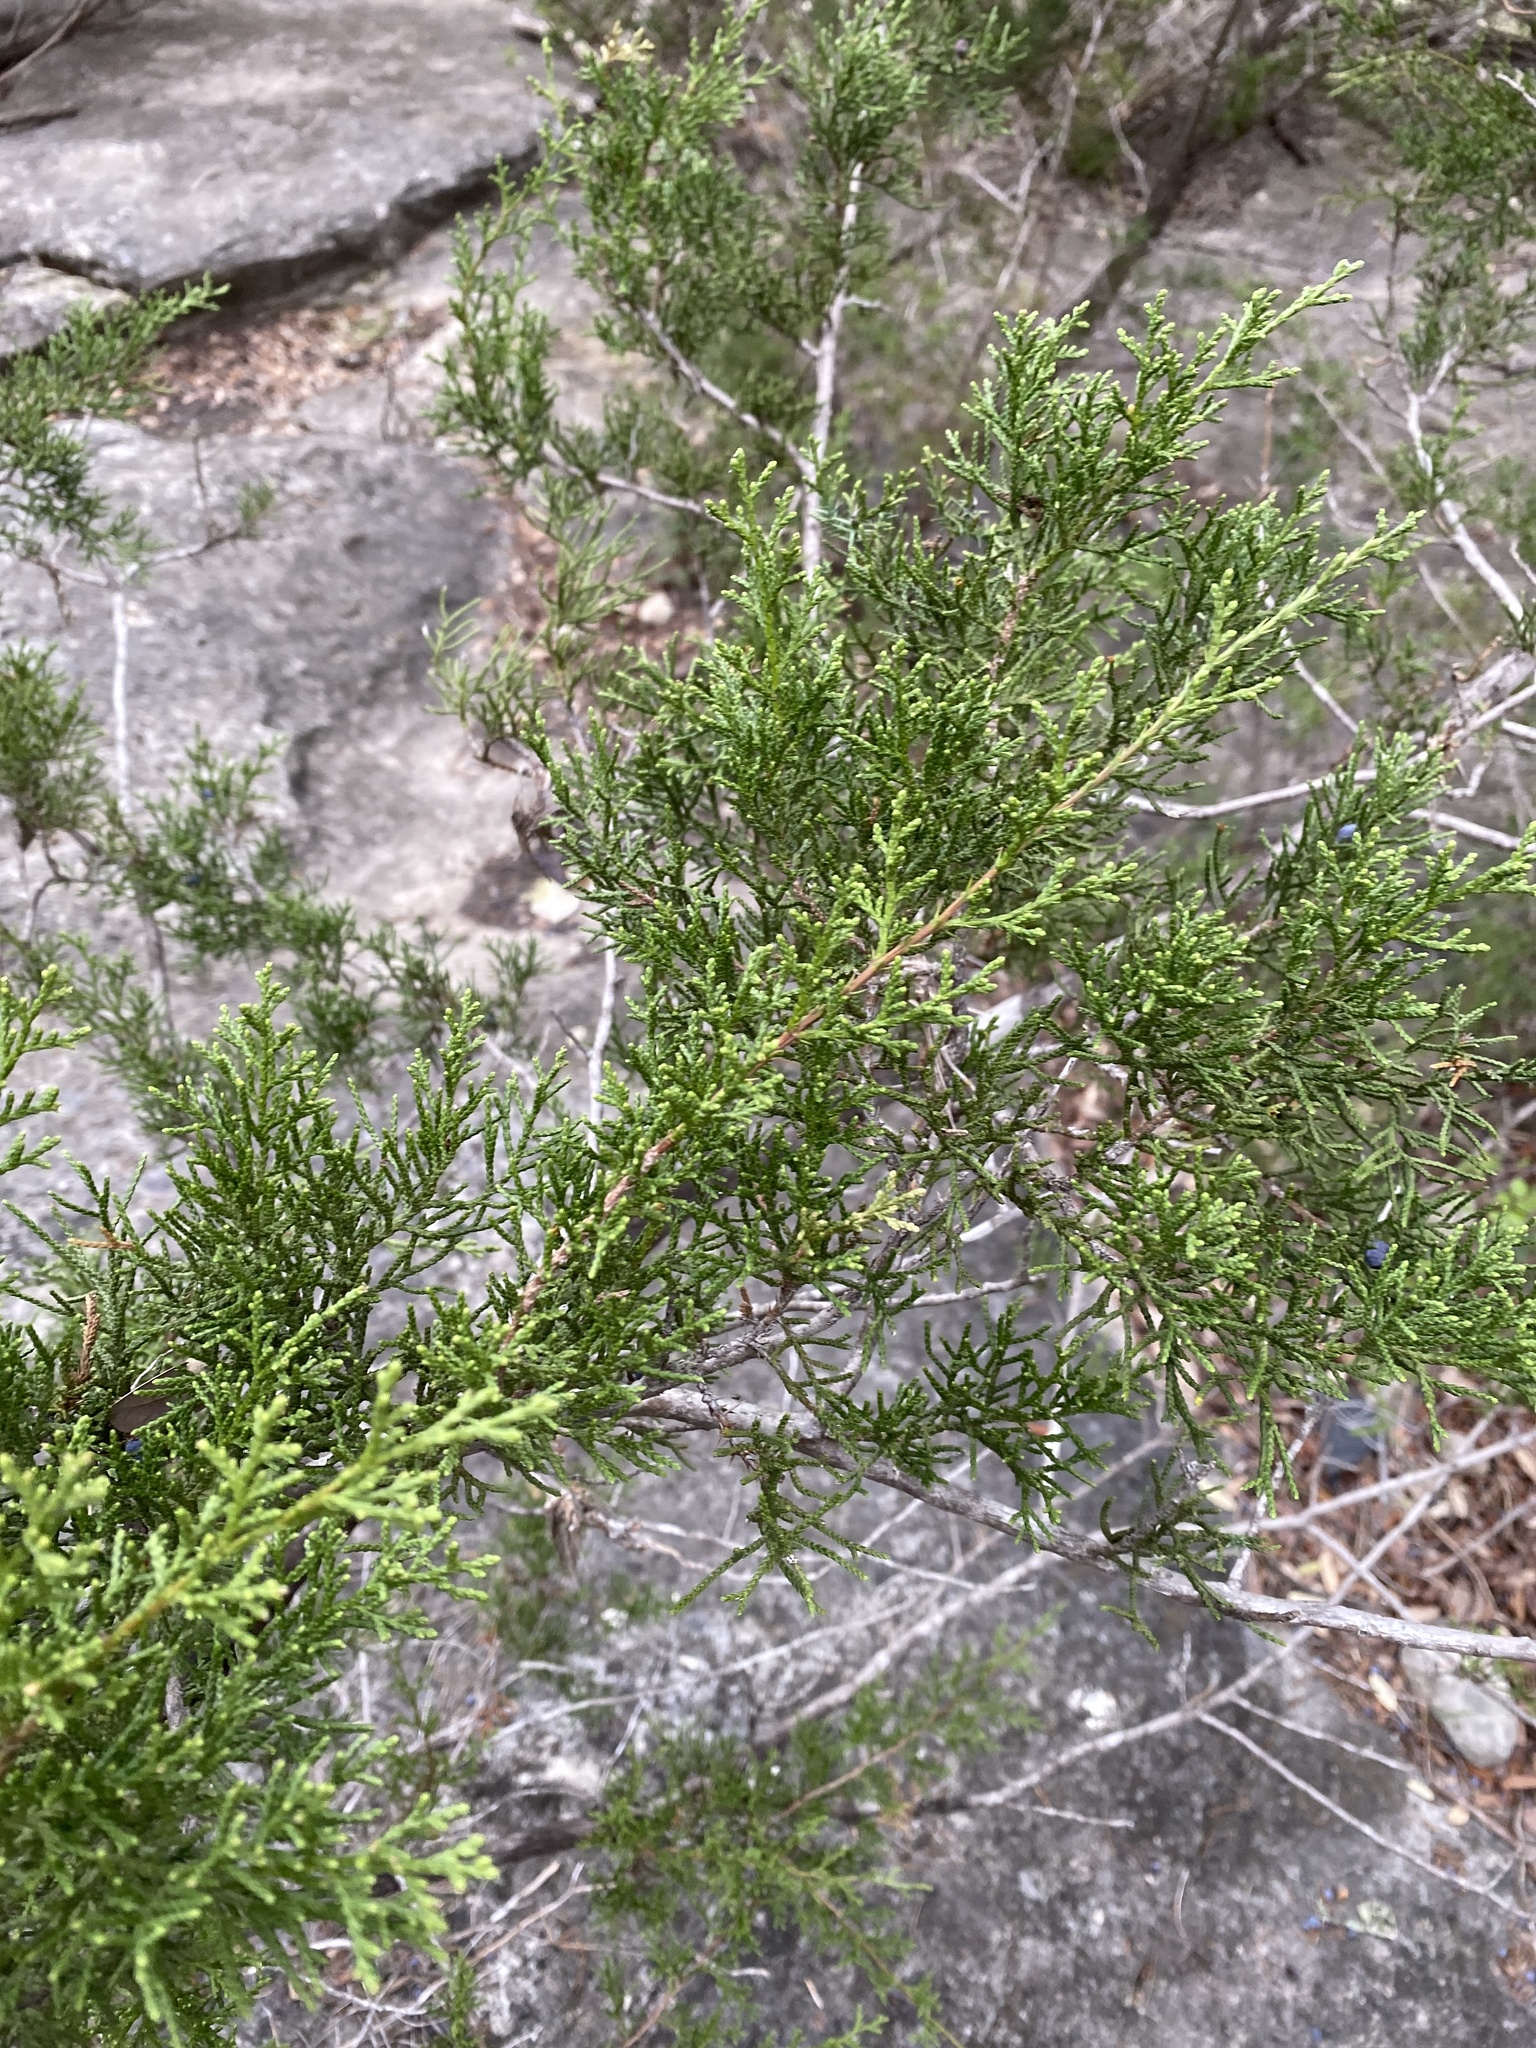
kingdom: Plantae
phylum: Tracheophyta
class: Pinopsida
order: Pinales
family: Cupressaceae
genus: Juniperus
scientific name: Juniperus ashei
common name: Mexican juniper
